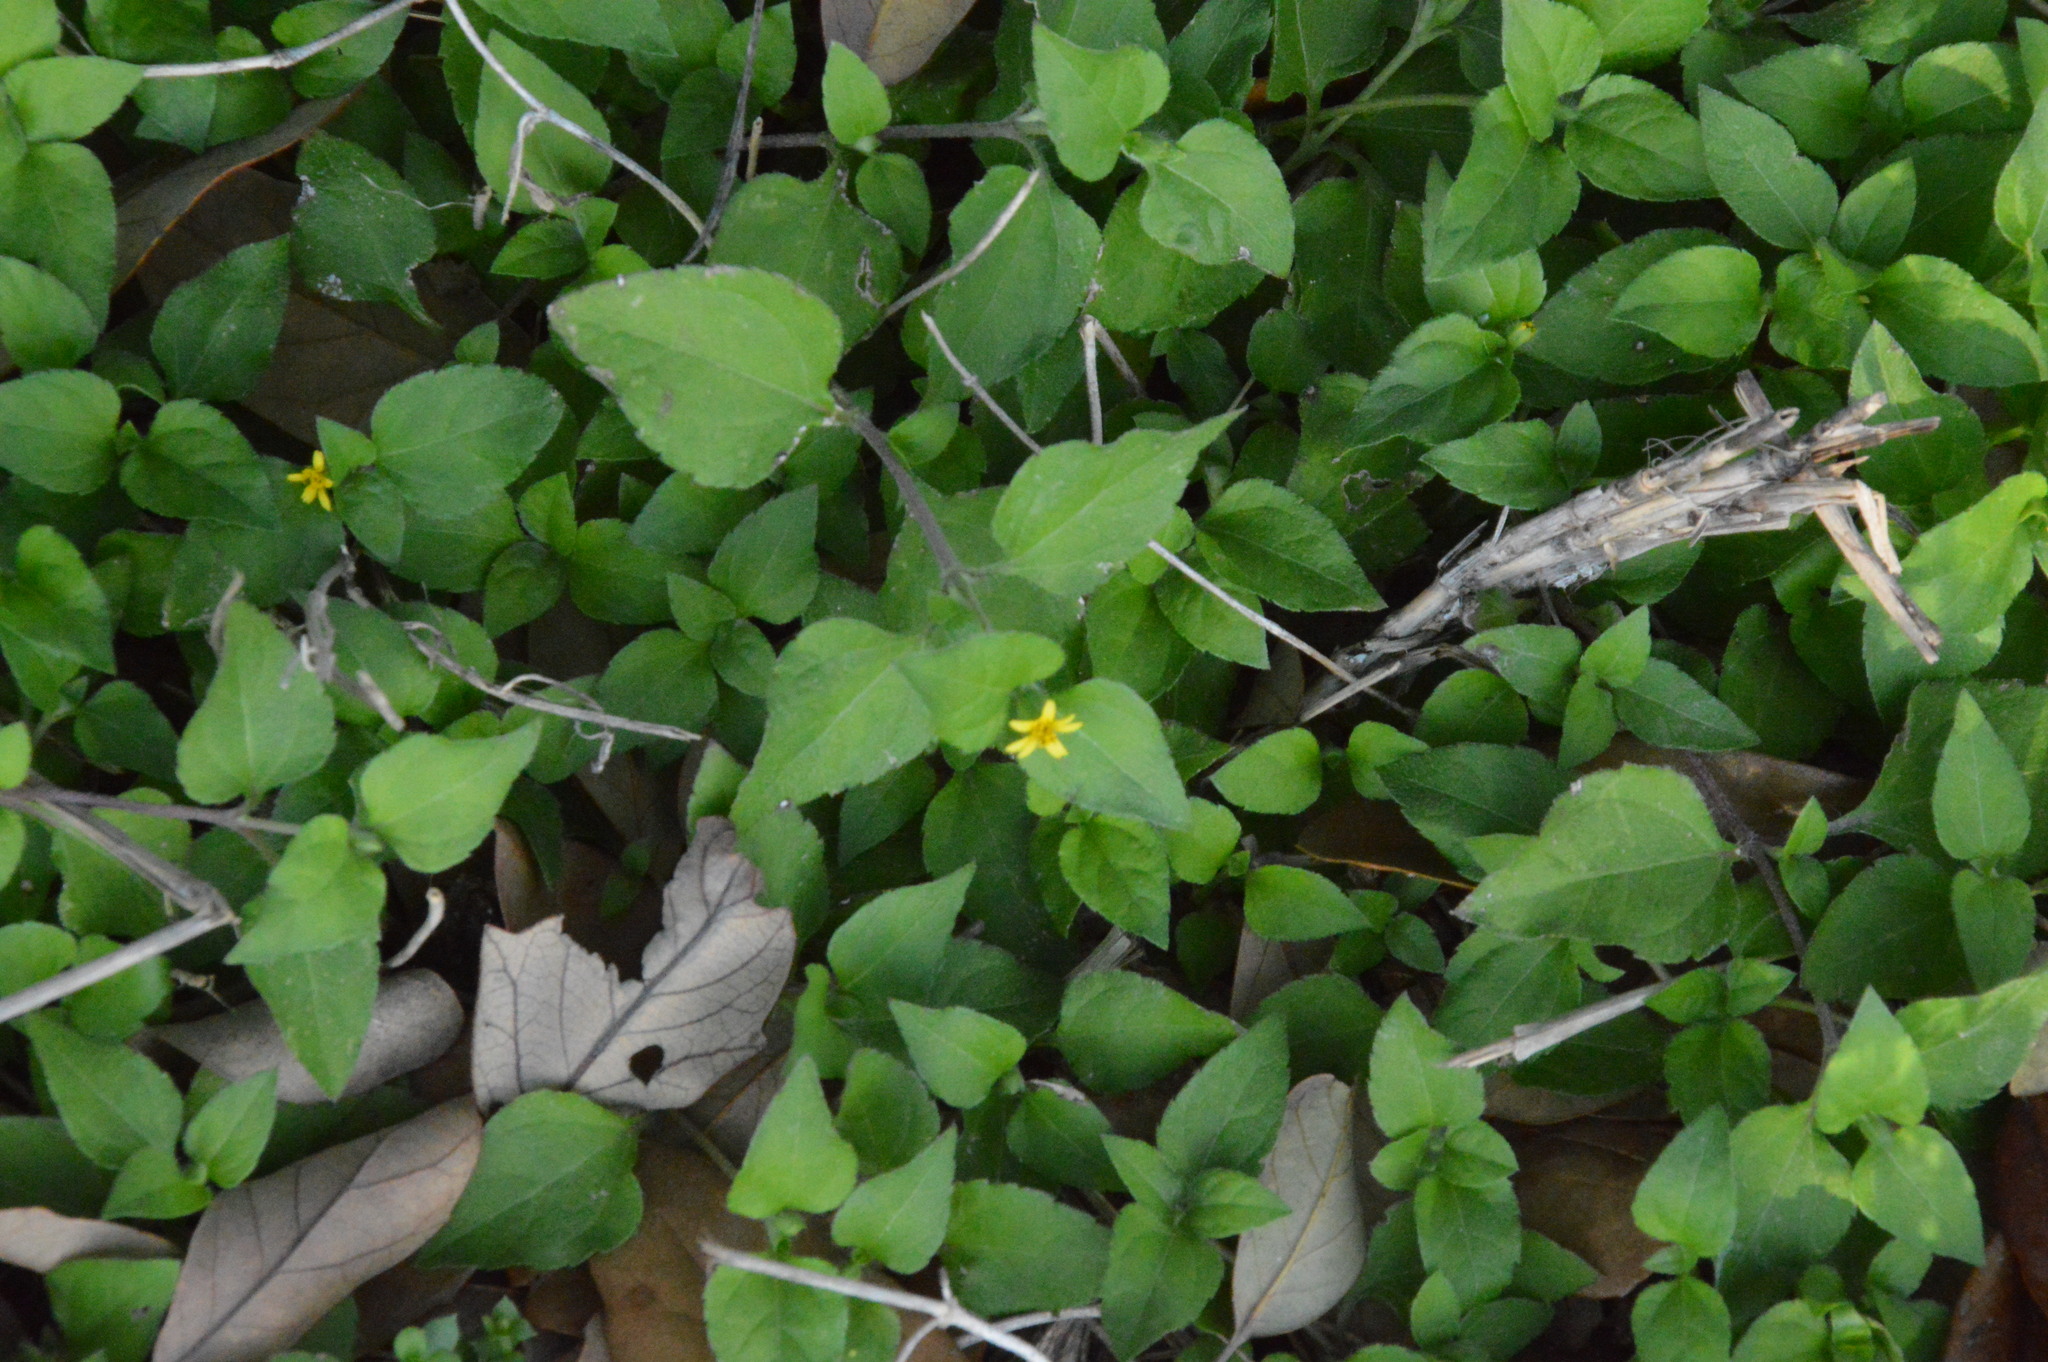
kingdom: Plantae
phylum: Tracheophyta
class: Magnoliopsida
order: Asterales
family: Asteraceae
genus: Calyptocarpus
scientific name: Calyptocarpus vialis
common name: Straggler daisy
